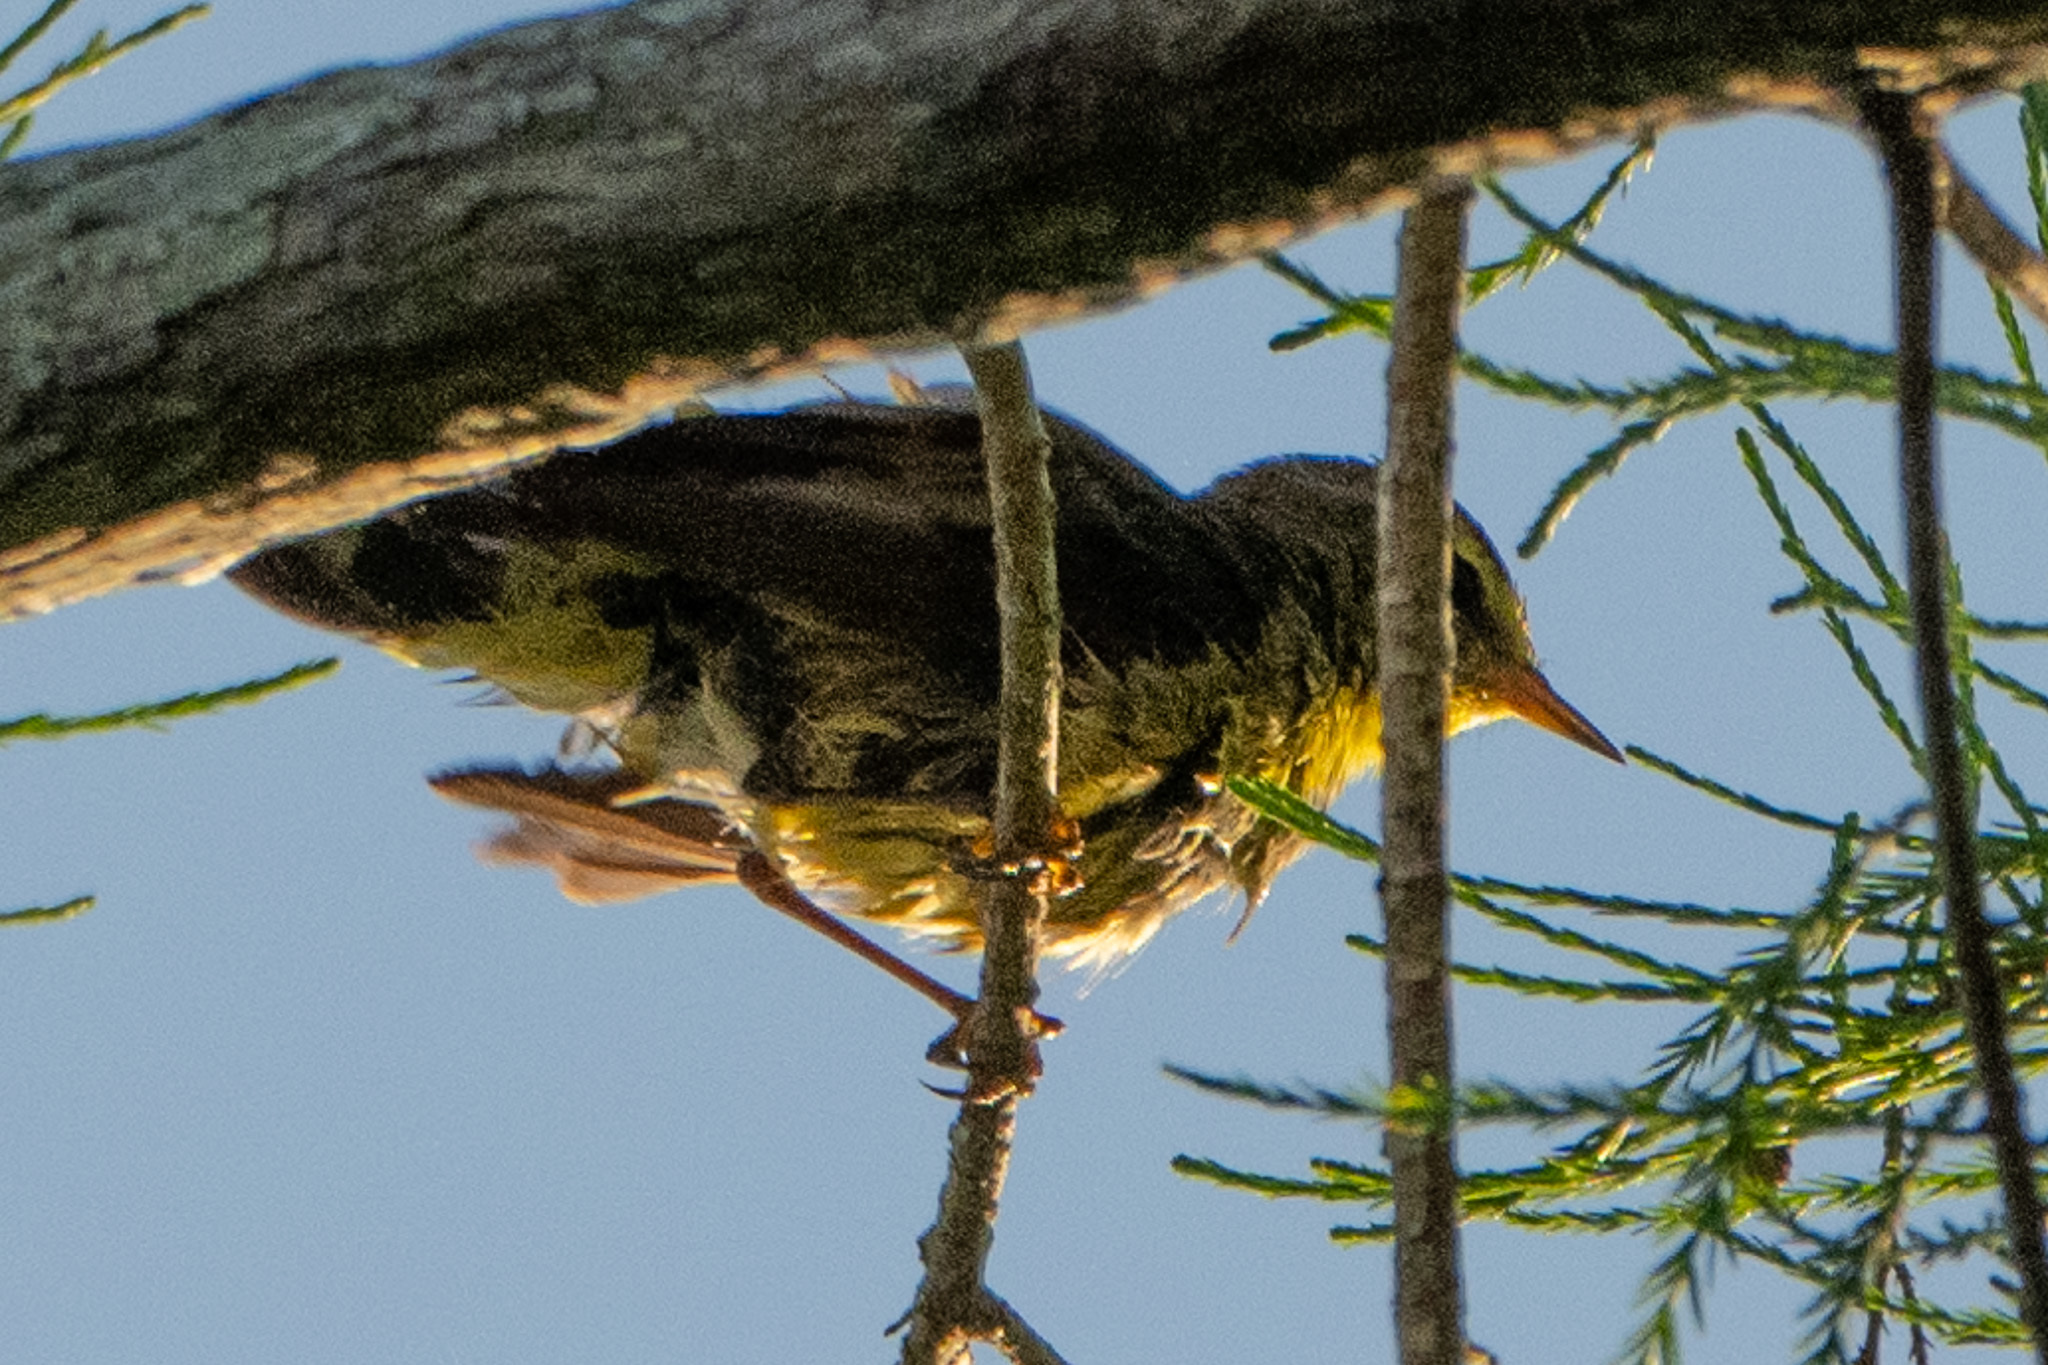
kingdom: Animalia
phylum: Chordata
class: Aves
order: Passeriformes
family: Parulidae
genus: Setophaga
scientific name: Setophaga palmarum
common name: Palm warbler
